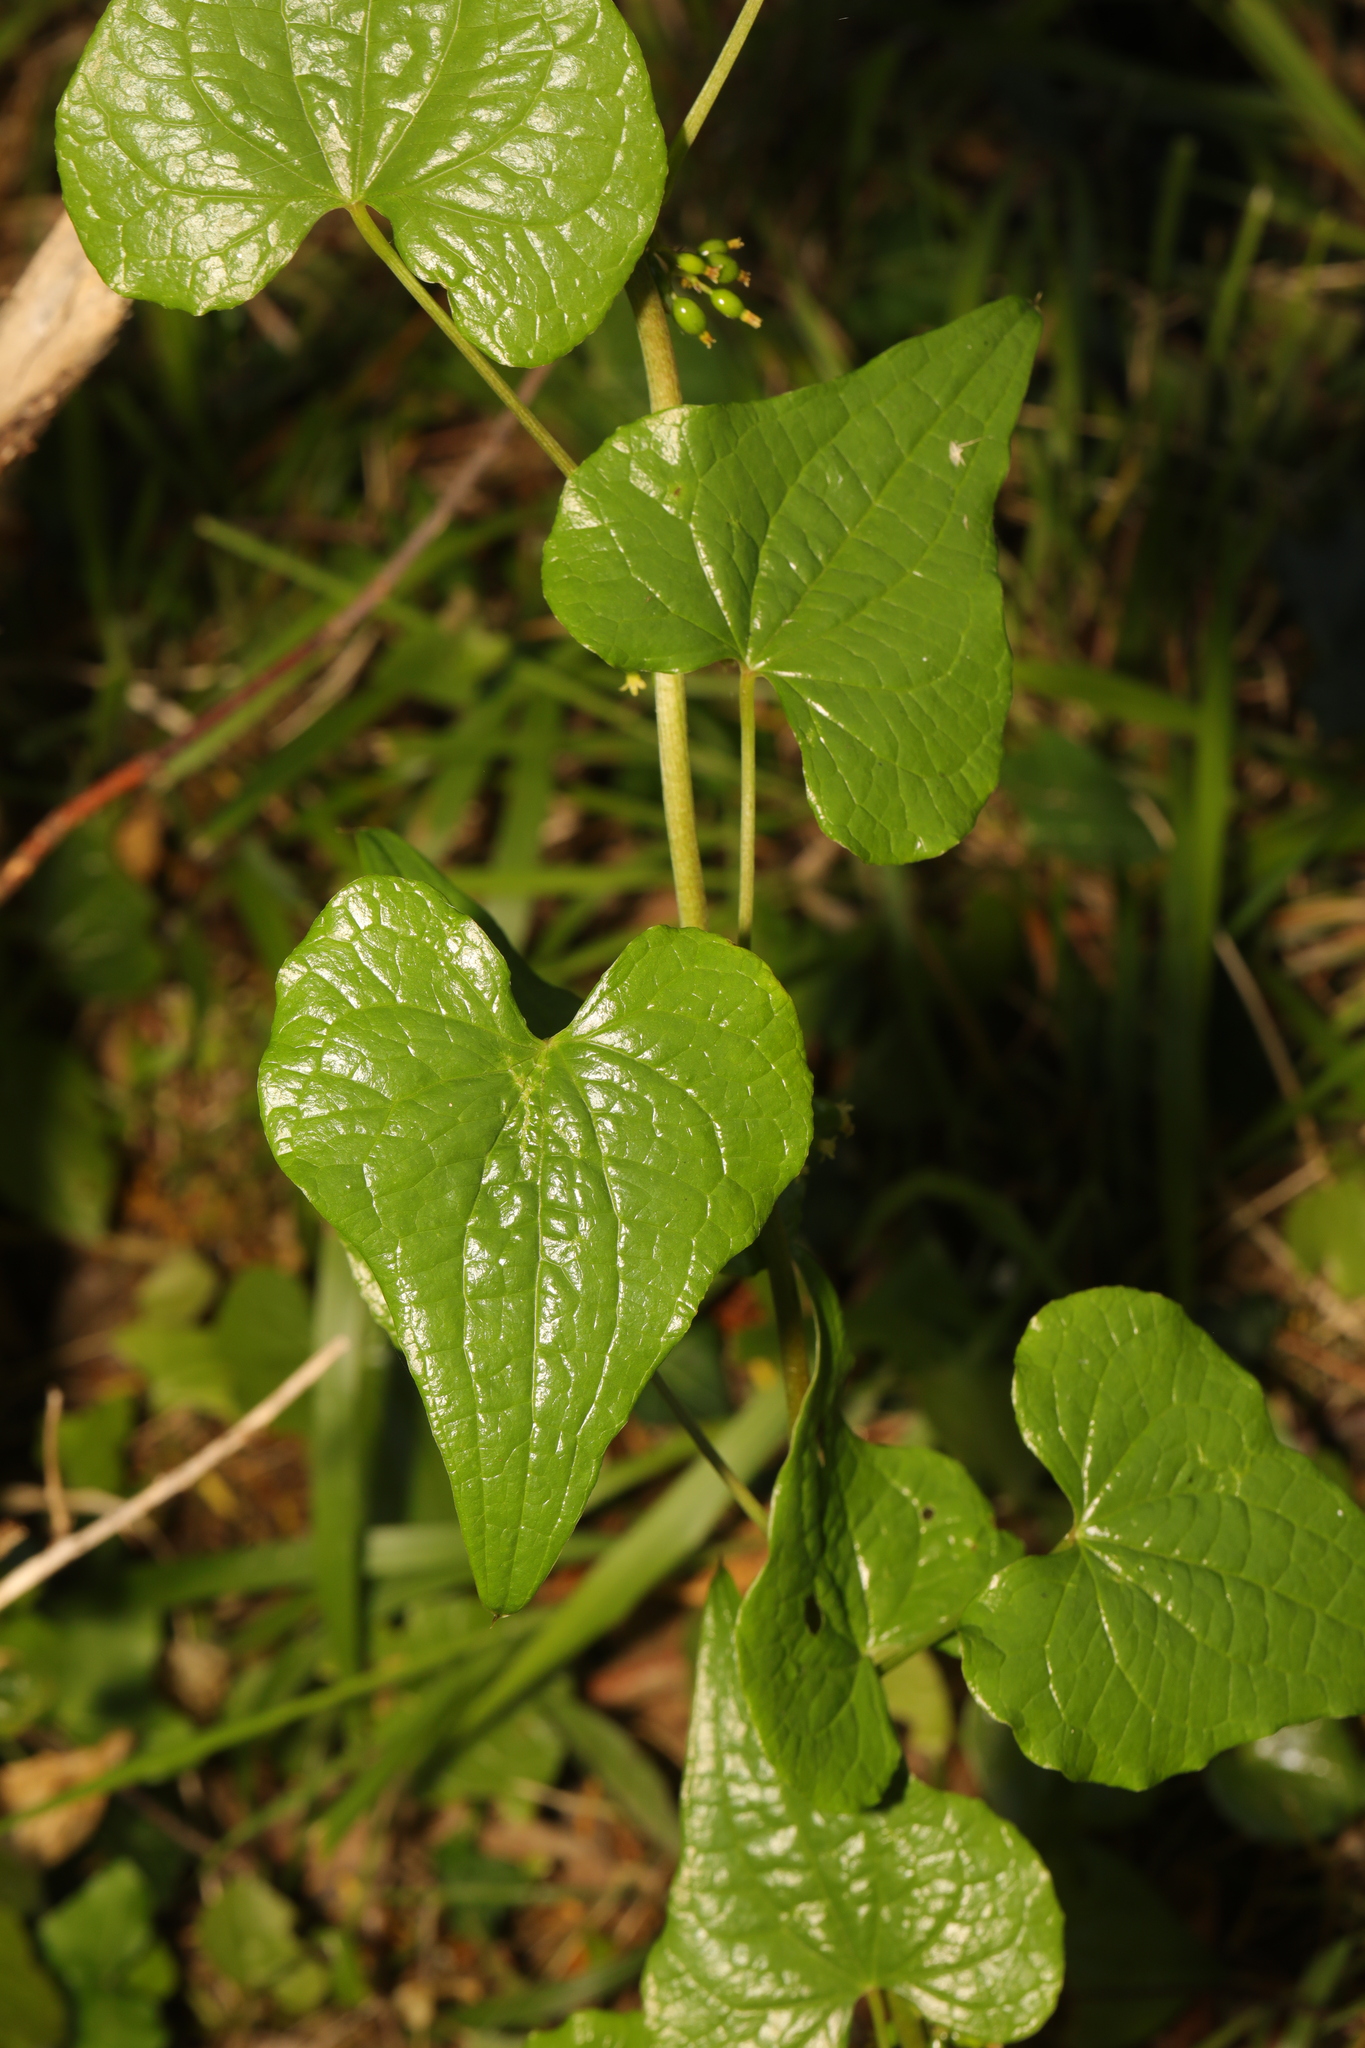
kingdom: Plantae
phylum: Tracheophyta
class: Liliopsida
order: Dioscoreales
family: Dioscoreaceae
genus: Dioscorea
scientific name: Dioscorea communis
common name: Black-bindweed
